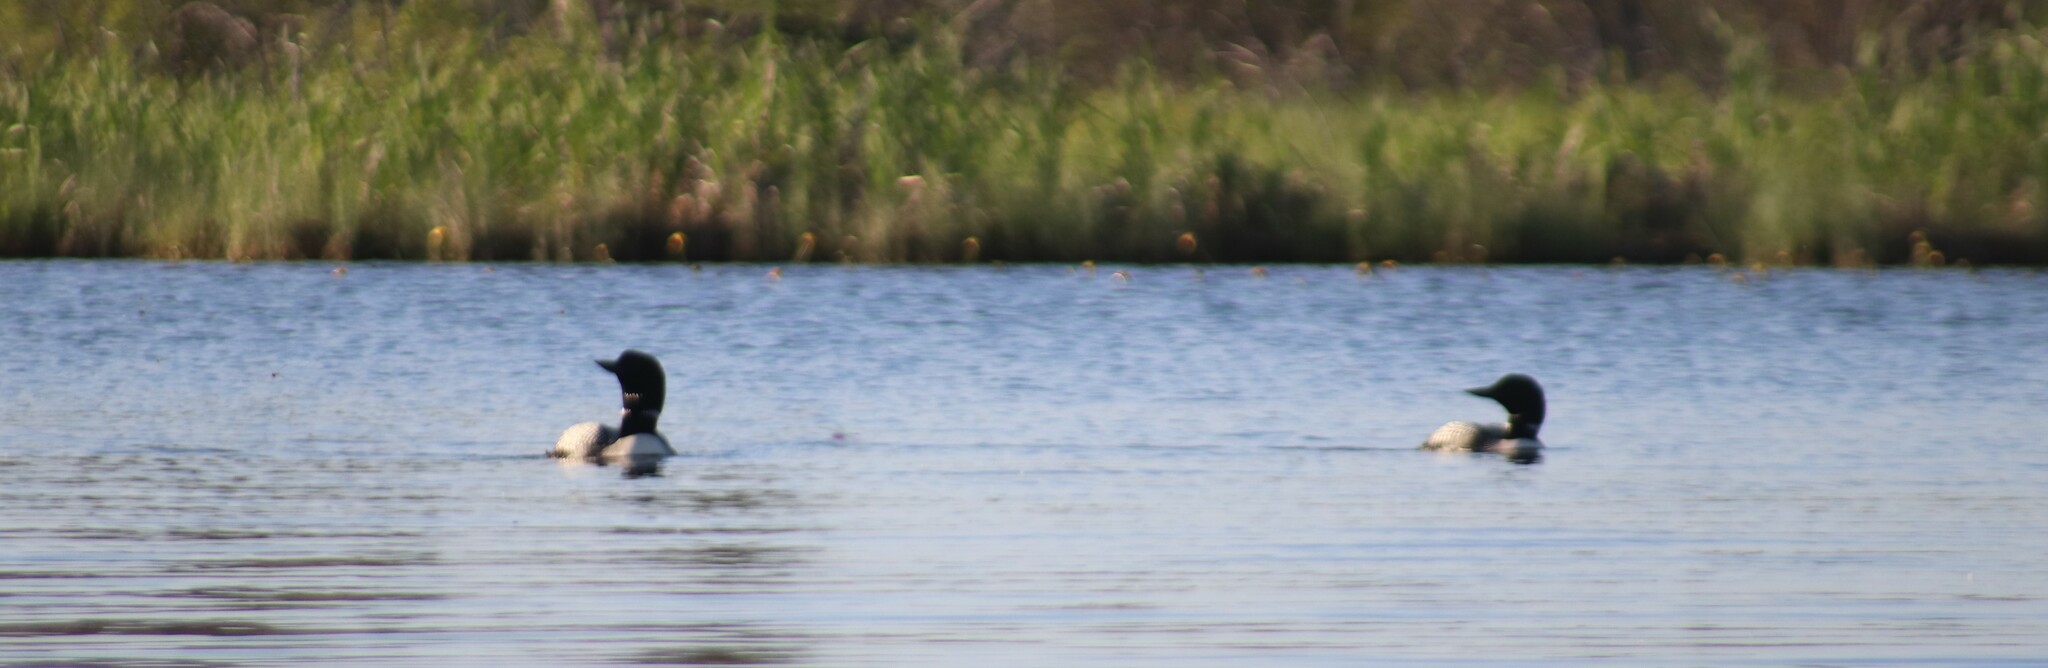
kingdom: Animalia
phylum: Chordata
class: Aves
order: Gaviiformes
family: Gaviidae
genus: Gavia
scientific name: Gavia immer
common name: Common loon
